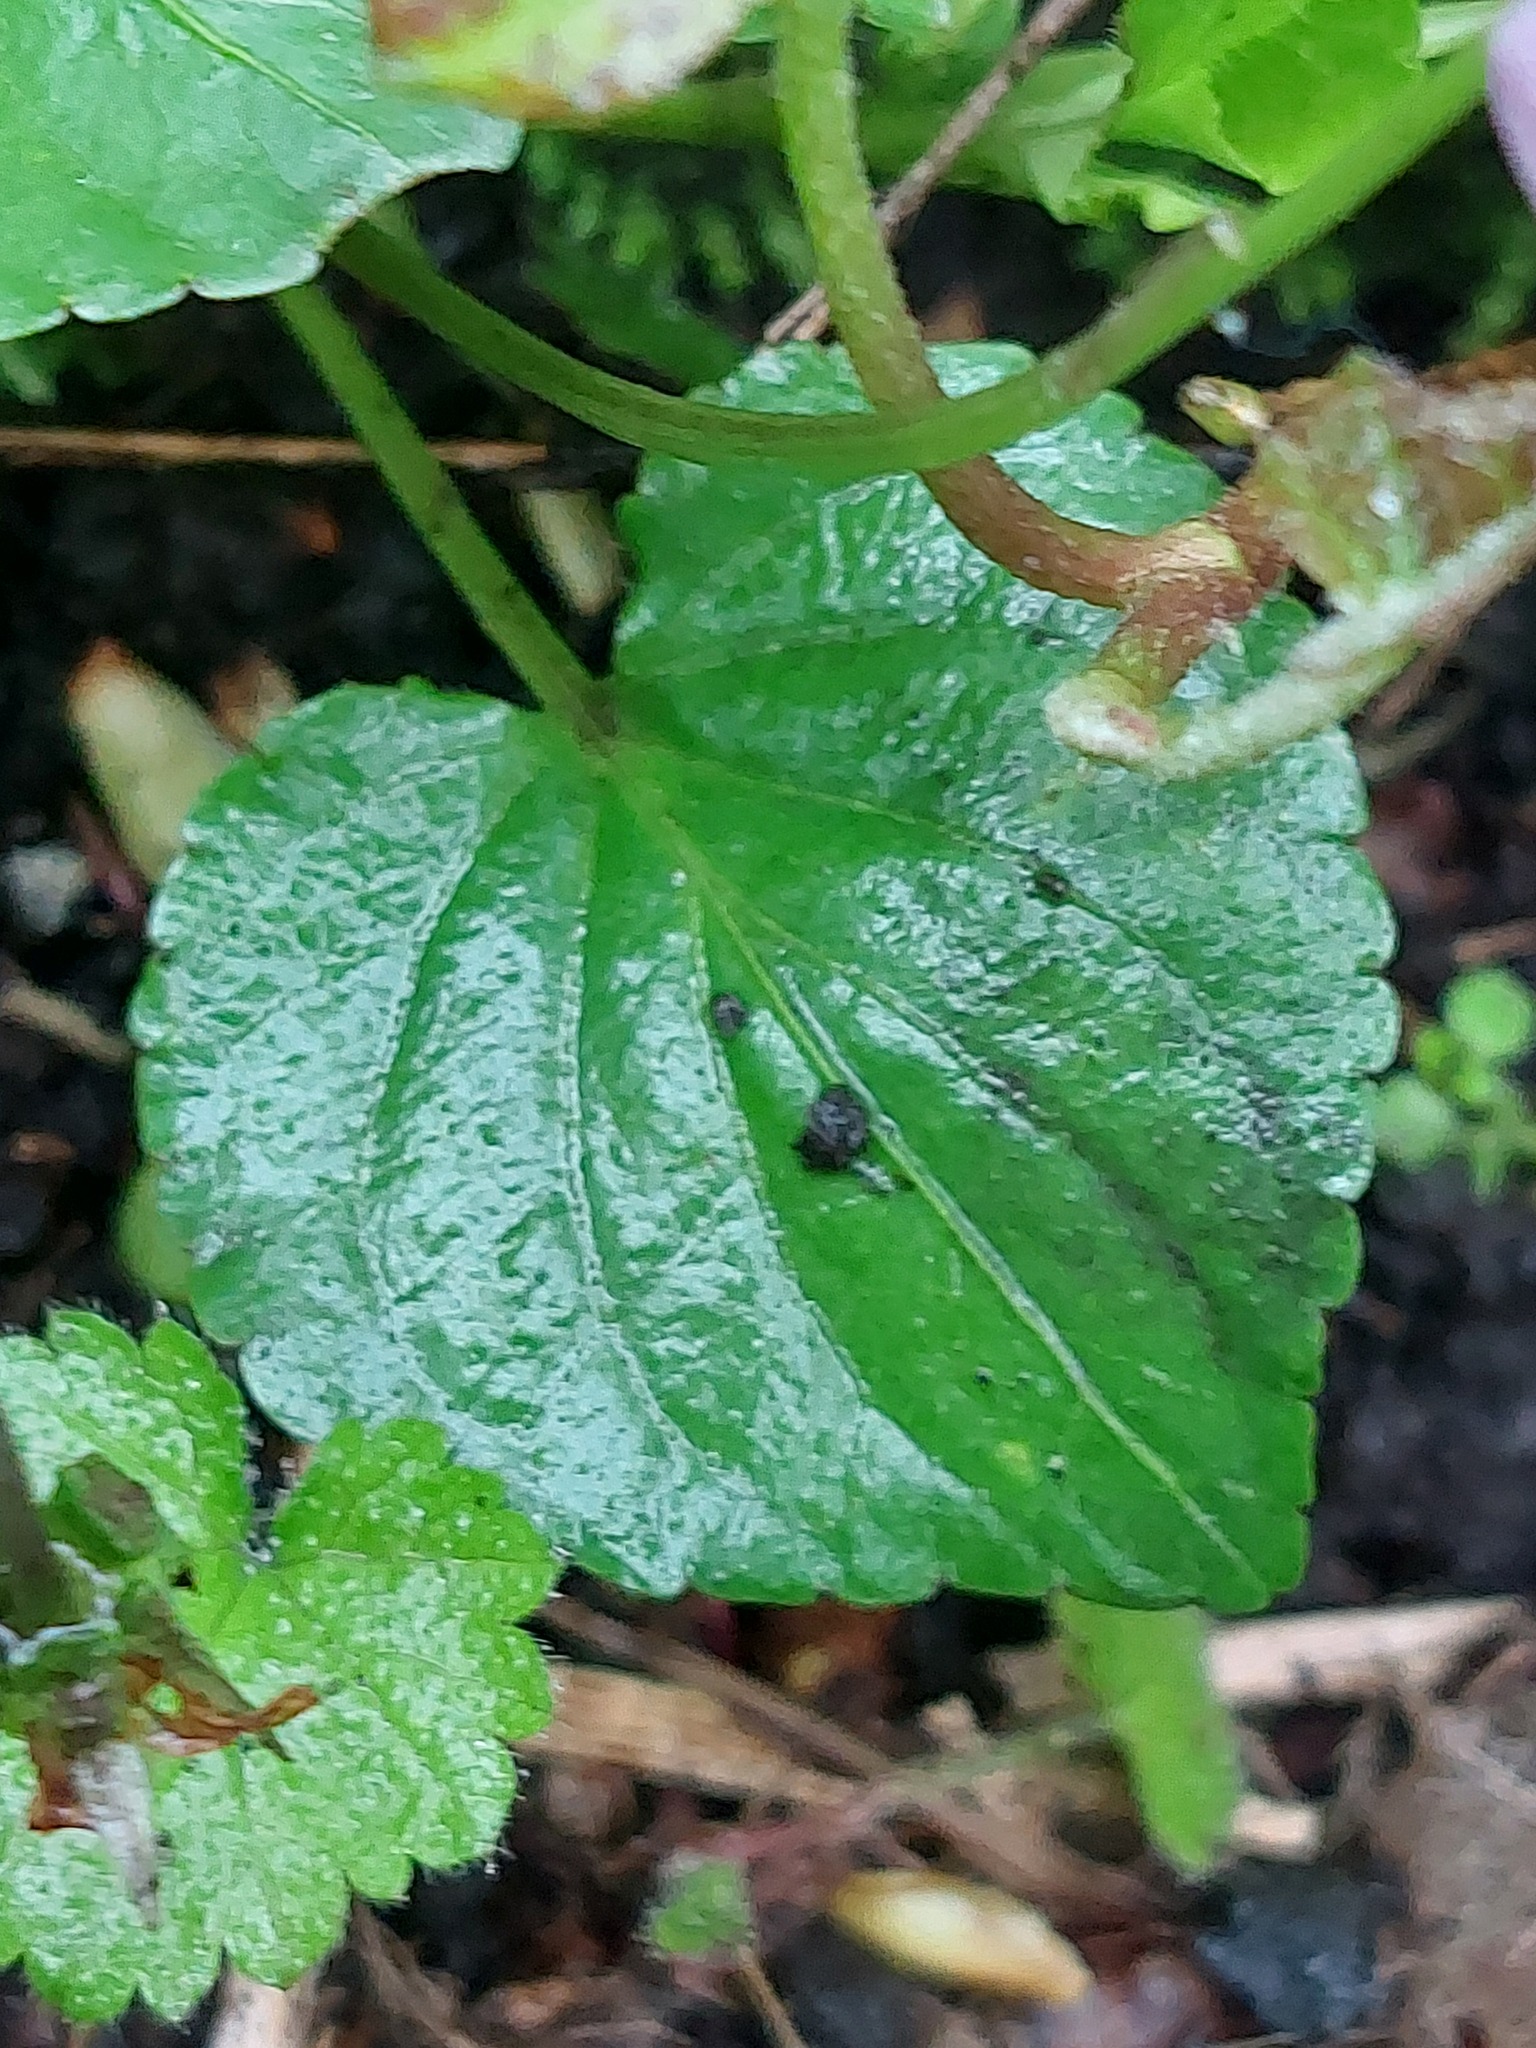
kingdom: Plantae
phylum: Tracheophyta
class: Magnoliopsida
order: Malpighiales
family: Violaceae
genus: Viola
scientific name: Viola riviniana
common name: Common dog-violet
